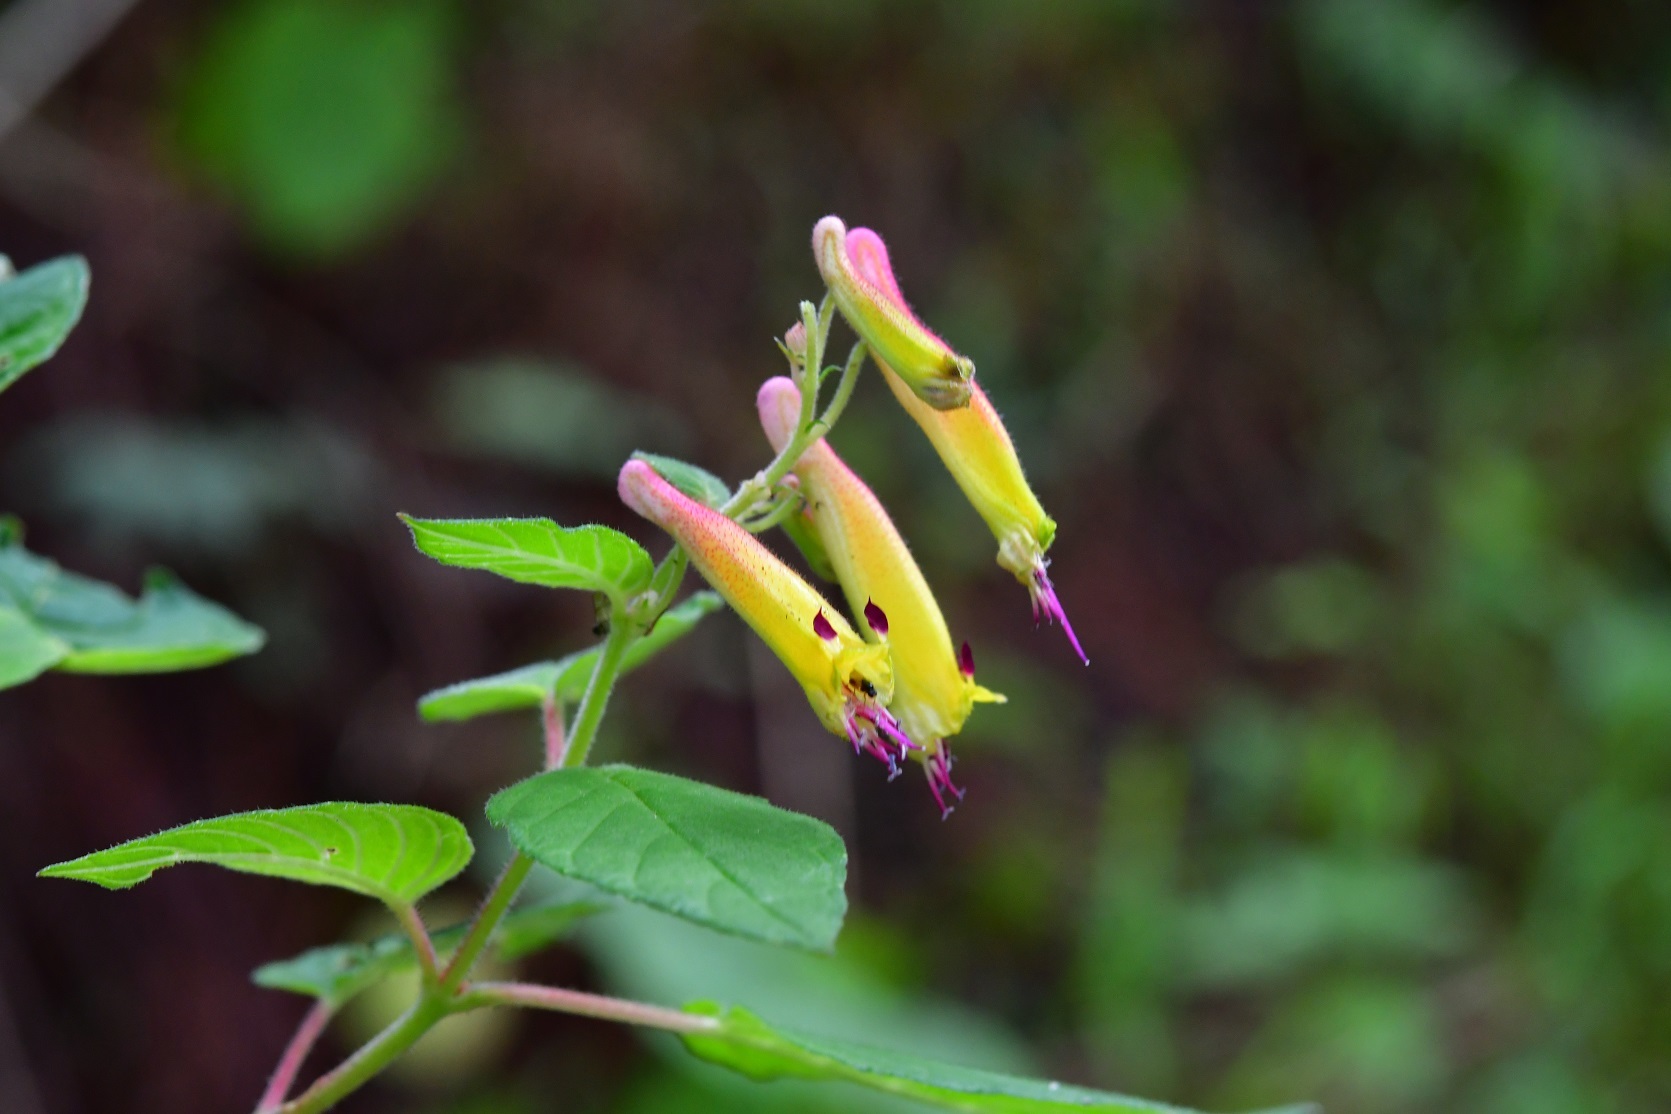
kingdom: Plantae
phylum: Tracheophyta
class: Magnoliopsida
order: Myrtales
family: Lythraceae
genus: Cuphea
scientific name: Cuphea cyanea
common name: Black-eyed cuphea
